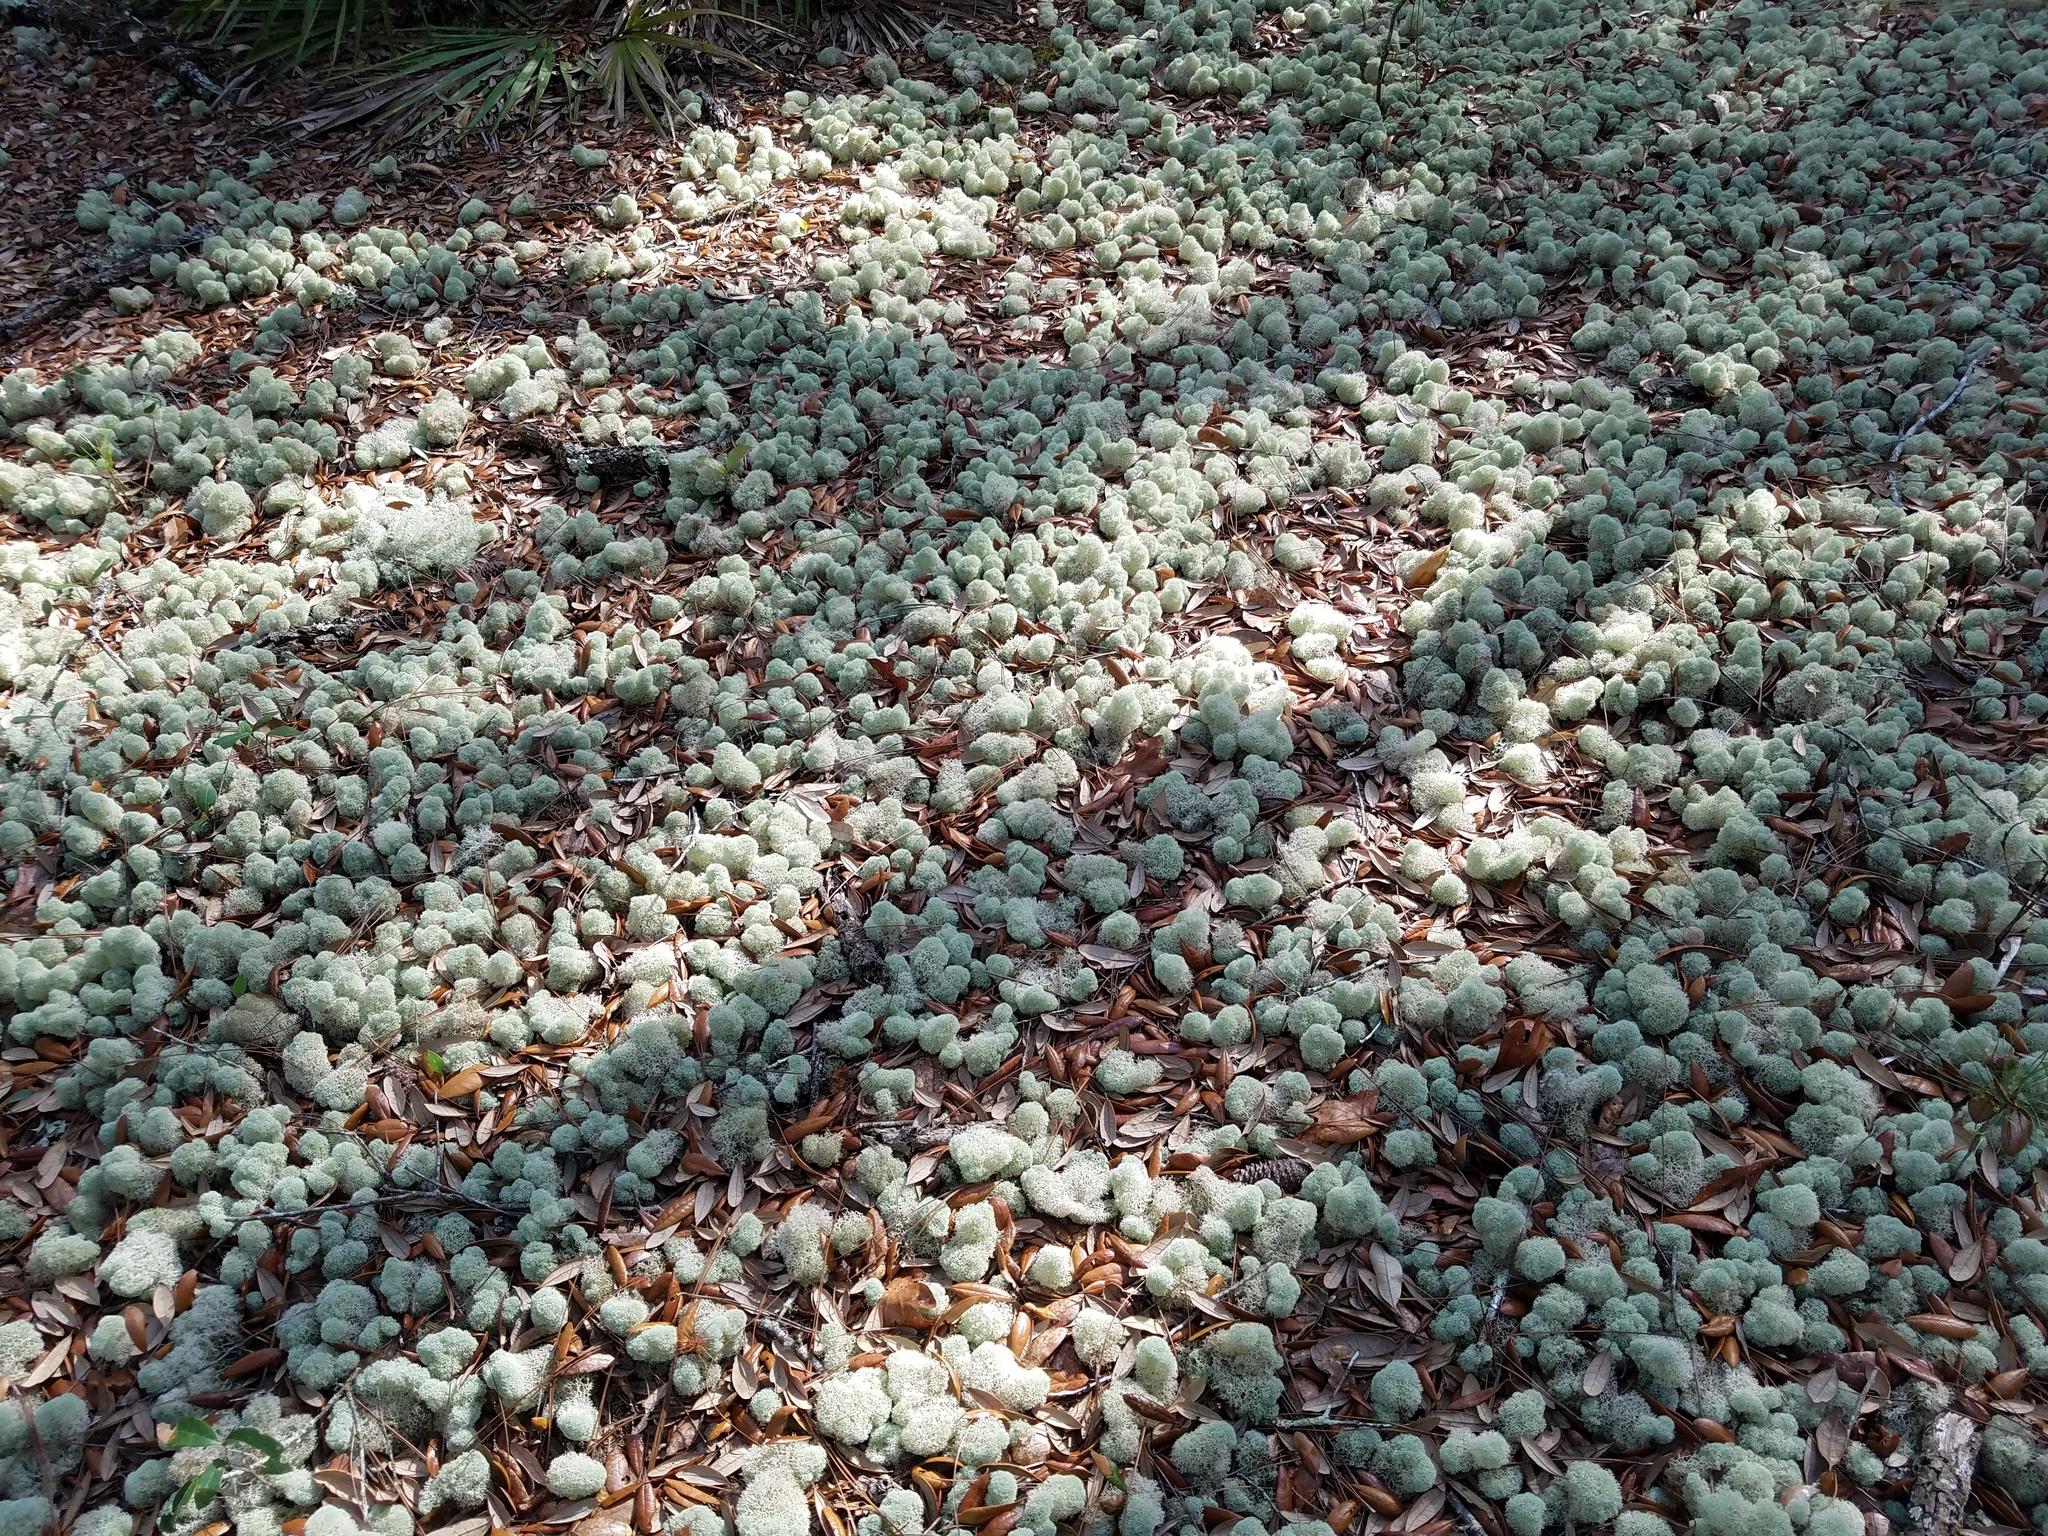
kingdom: Fungi
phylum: Ascomycota
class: Lecanoromycetes
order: Lecanorales
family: Cladoniaceae
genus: Cladonia
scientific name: Cladonia evansii
